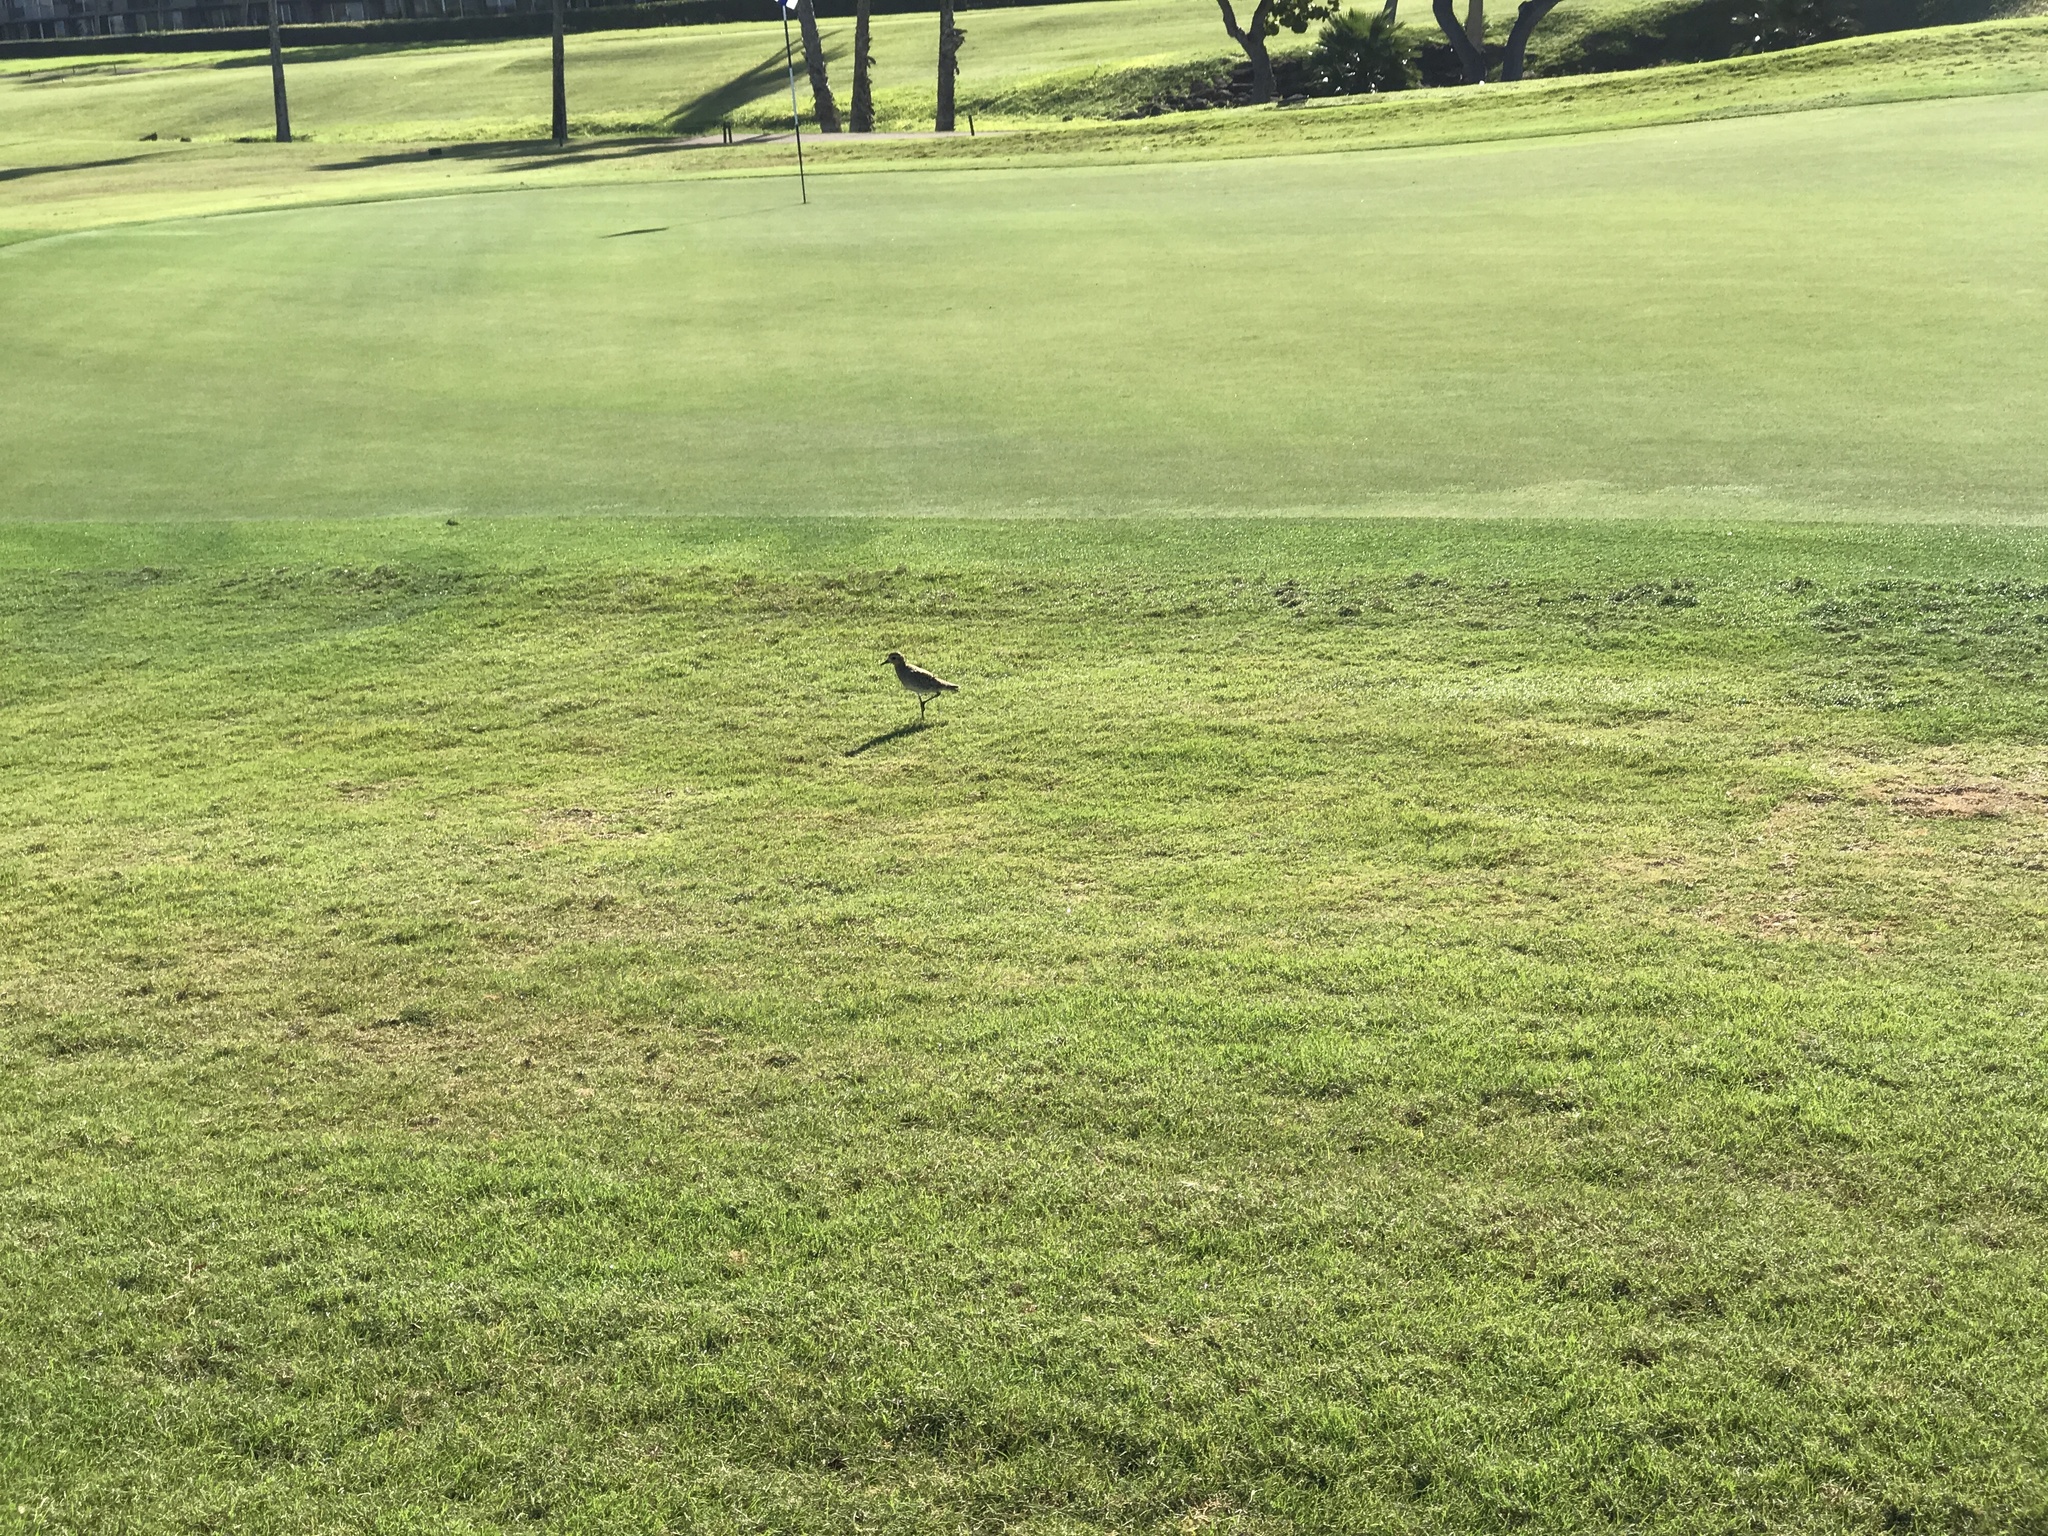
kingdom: Animalia
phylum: Chordata
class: Aves
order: Charadriiformes
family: Charadriidae
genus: Pluvialis
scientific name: Pluvialis fulva
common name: Pacific golden plover
